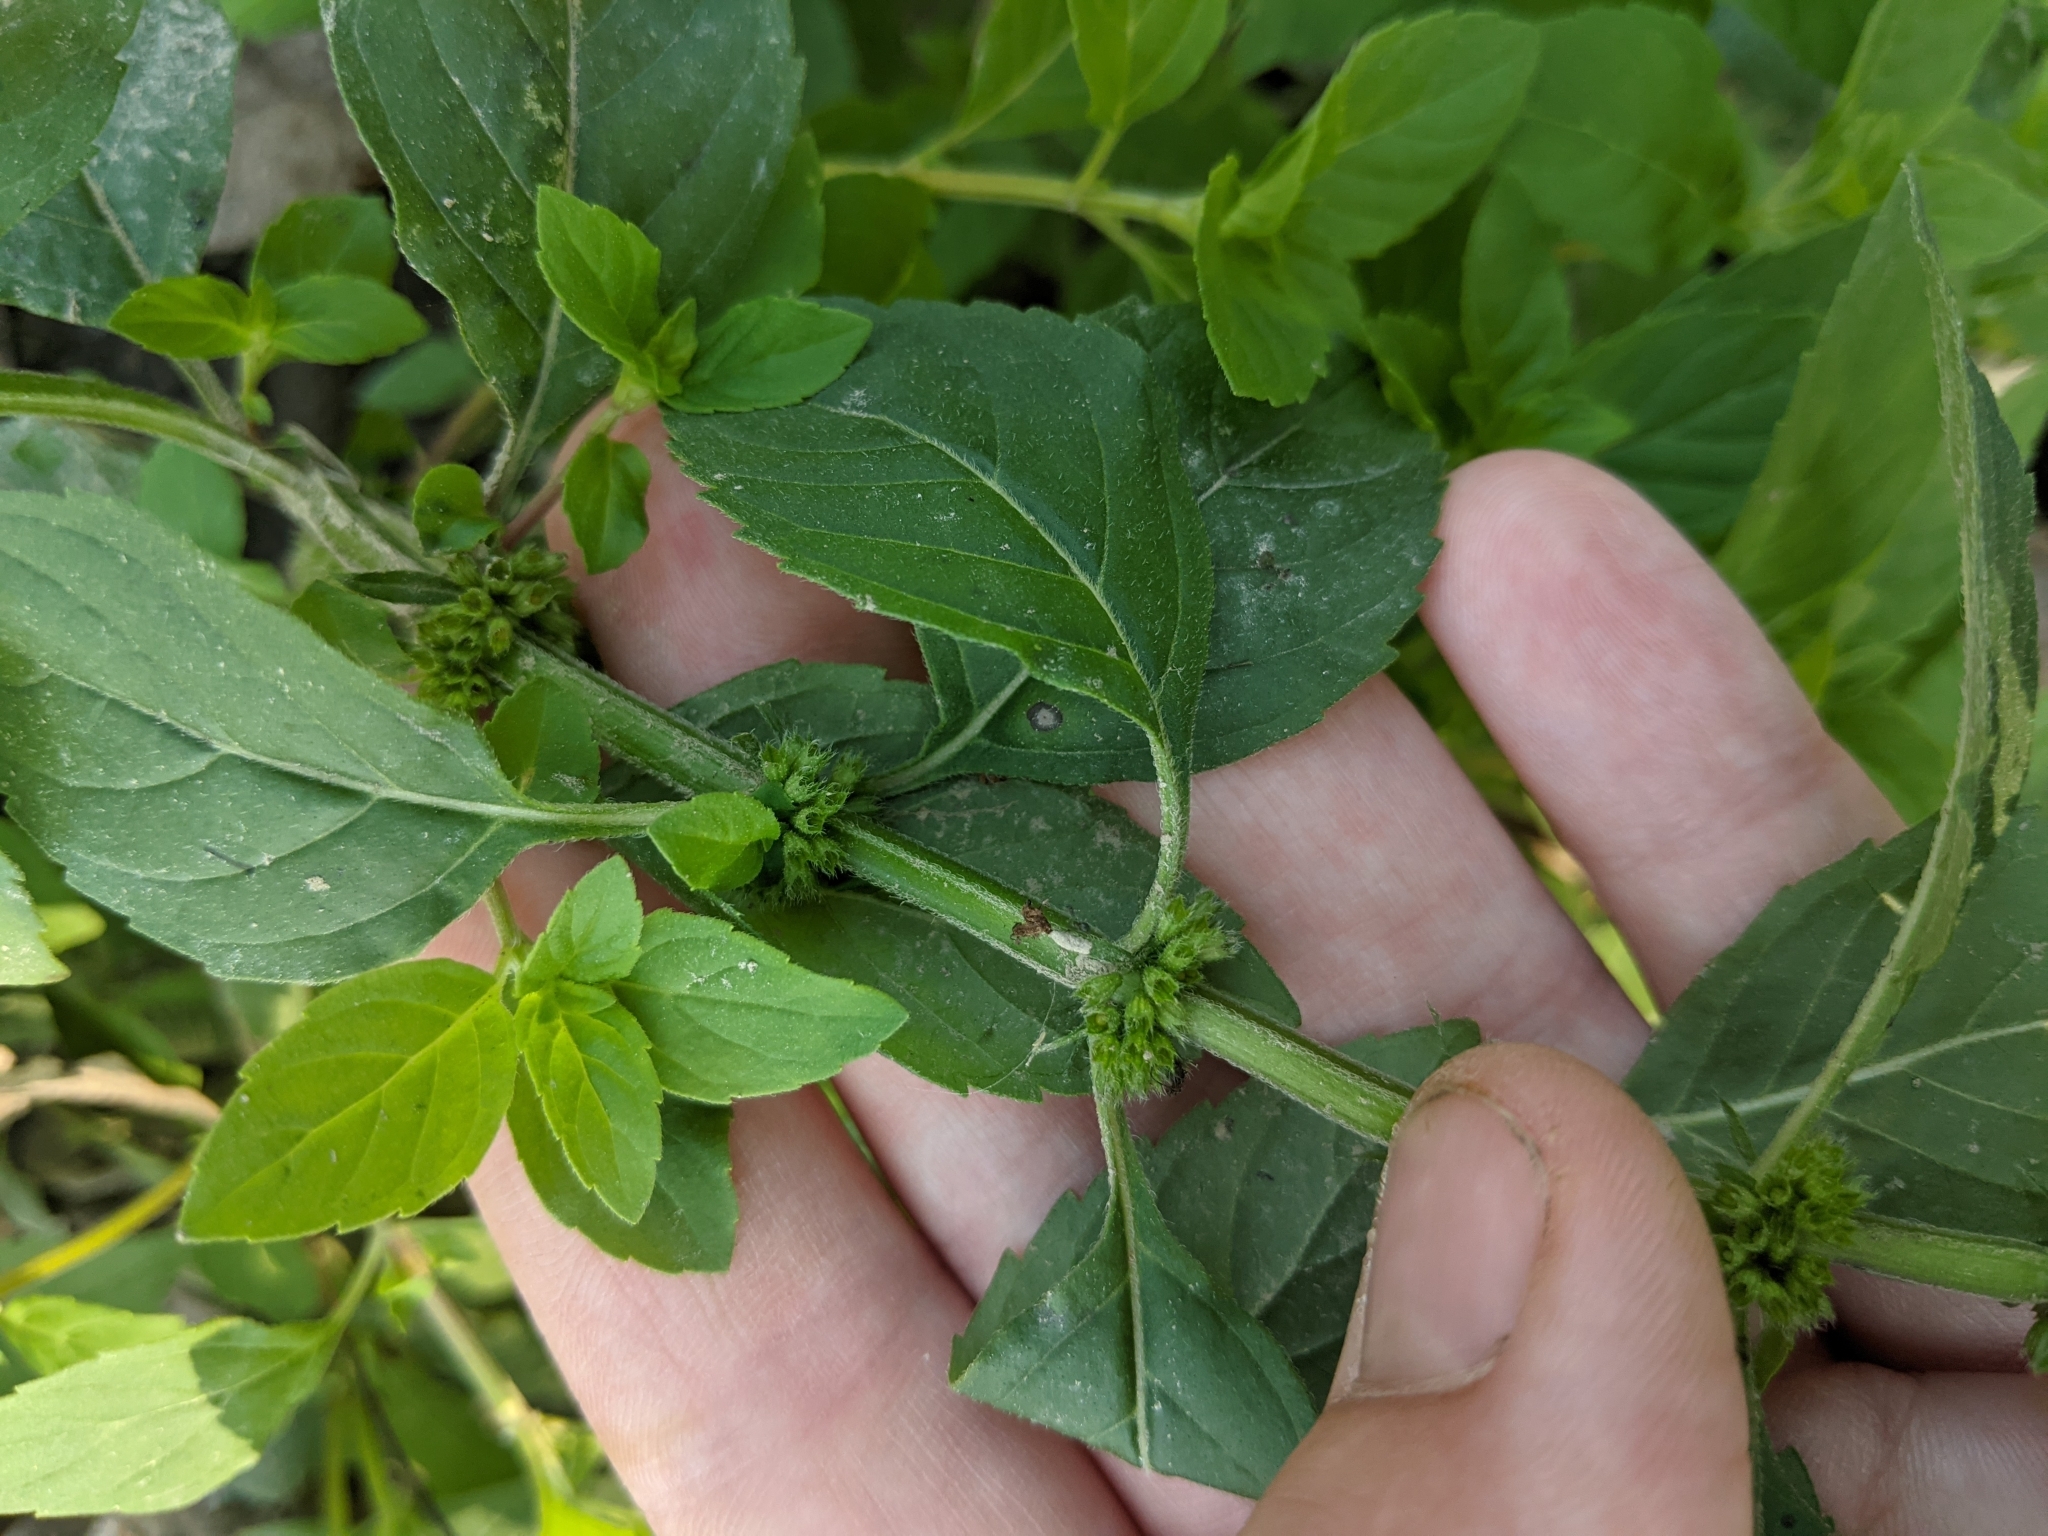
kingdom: Plantae
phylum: Tracheophyta
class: Magnoliopsida
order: Lamiales
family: Lamiaceae
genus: Mentha
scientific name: Mentha canadensis
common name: American corn mint
